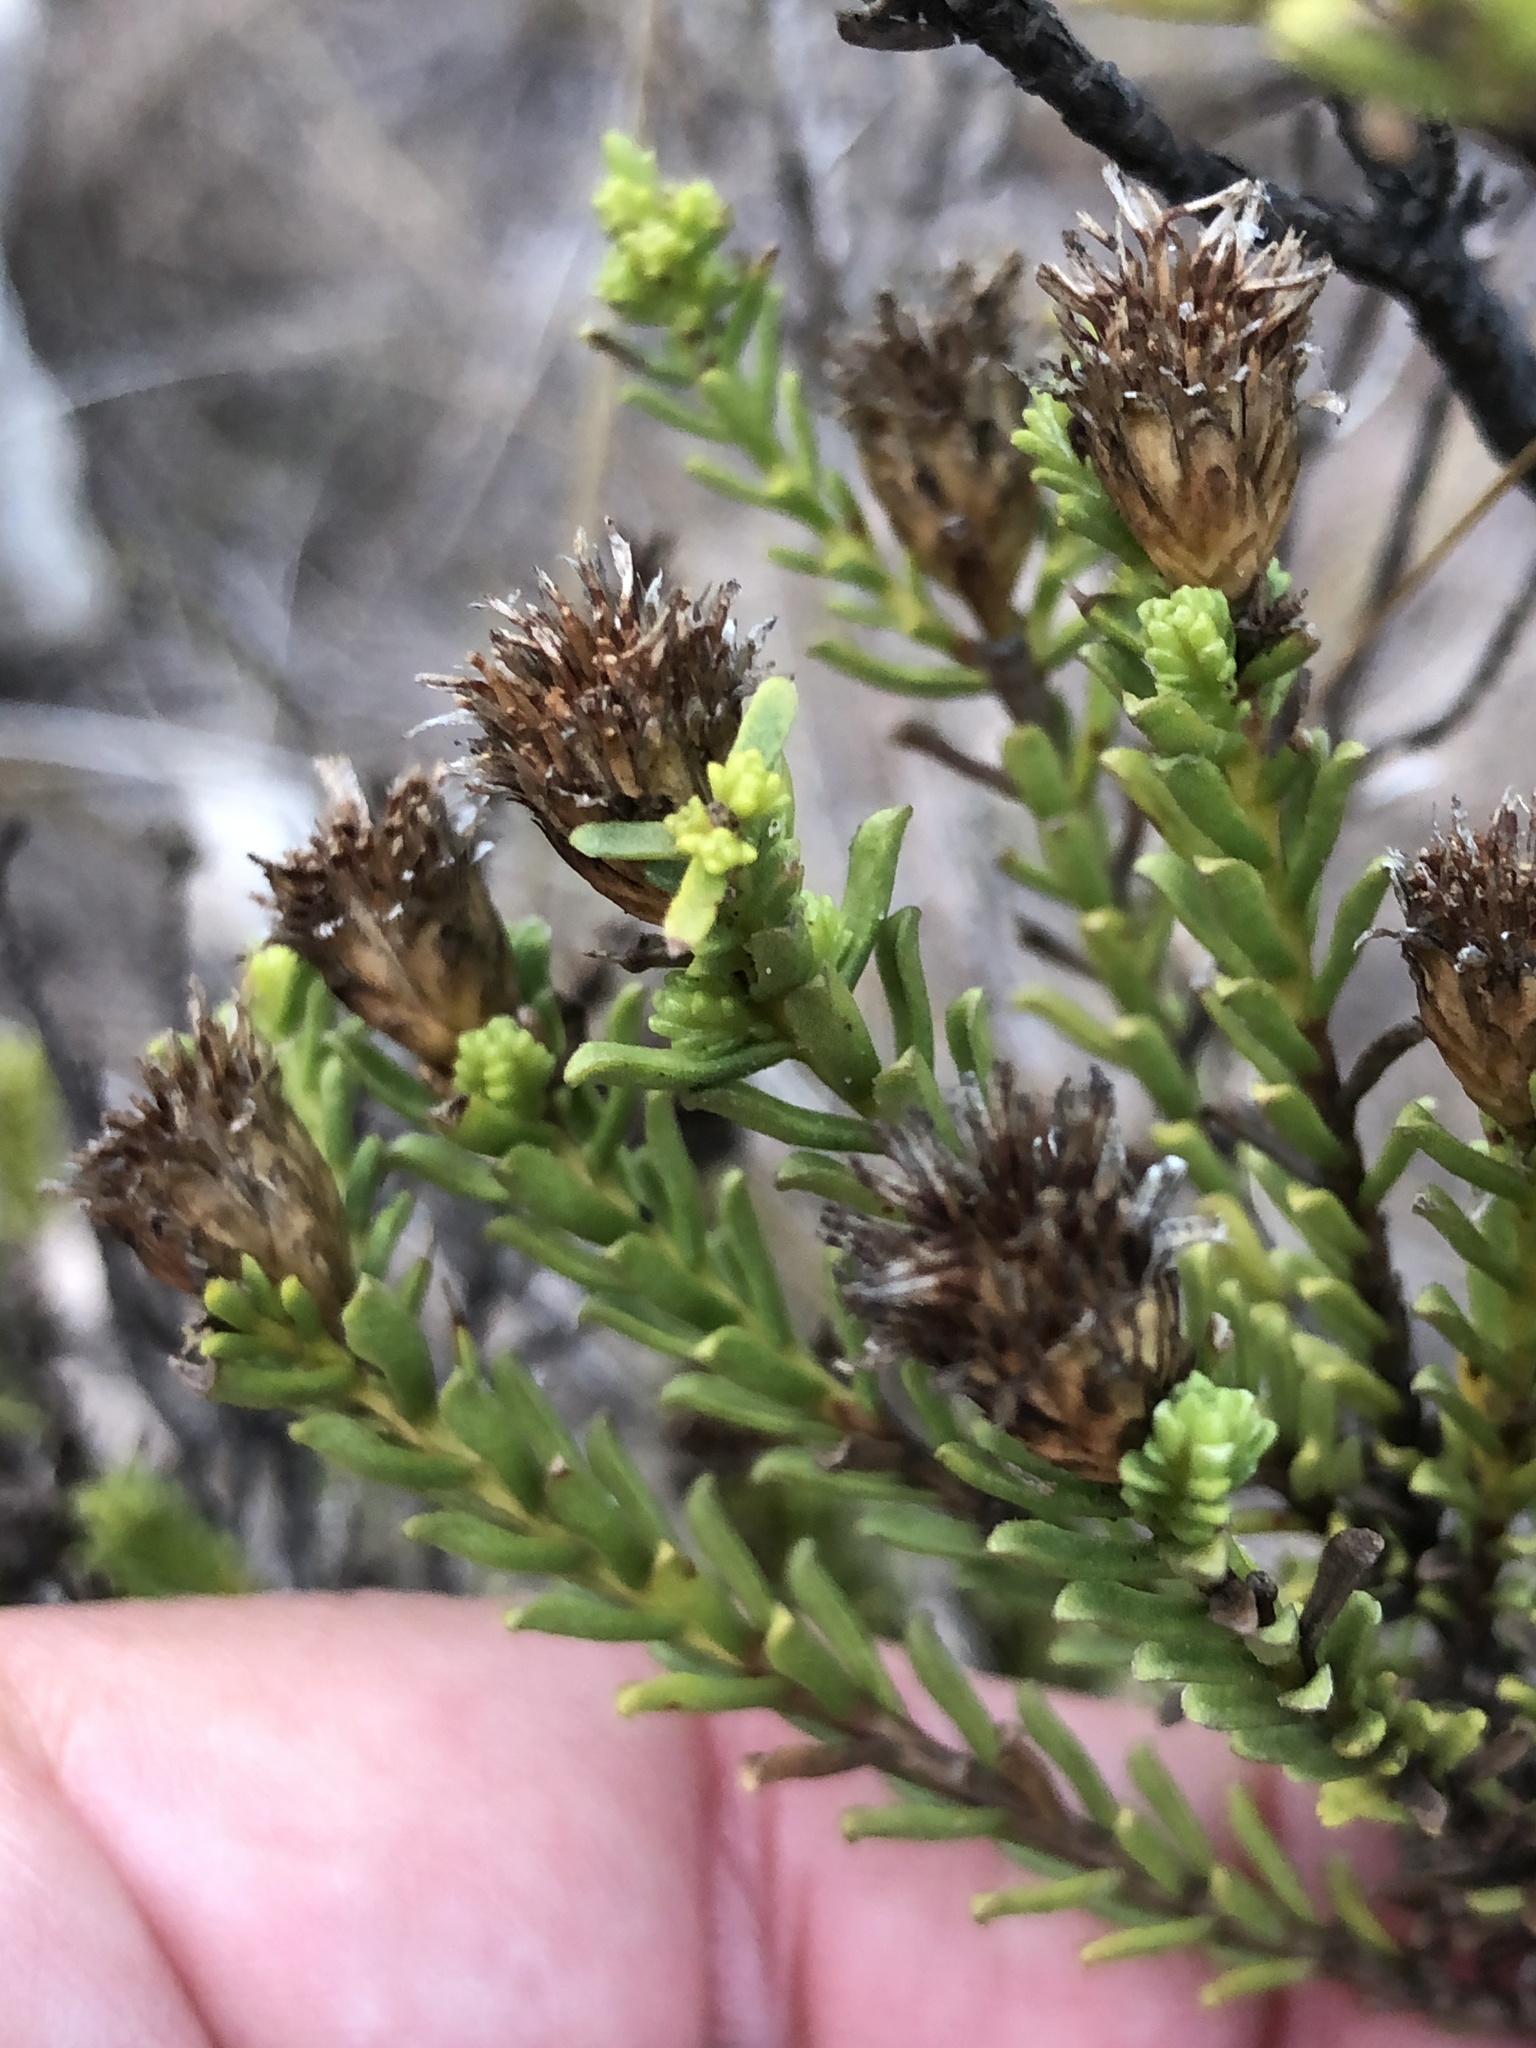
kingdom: Plantae
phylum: Tracheophyta
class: Magnoliopsida
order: Asterales
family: Asteraceae
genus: Oedera
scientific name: Oedera uniflora
